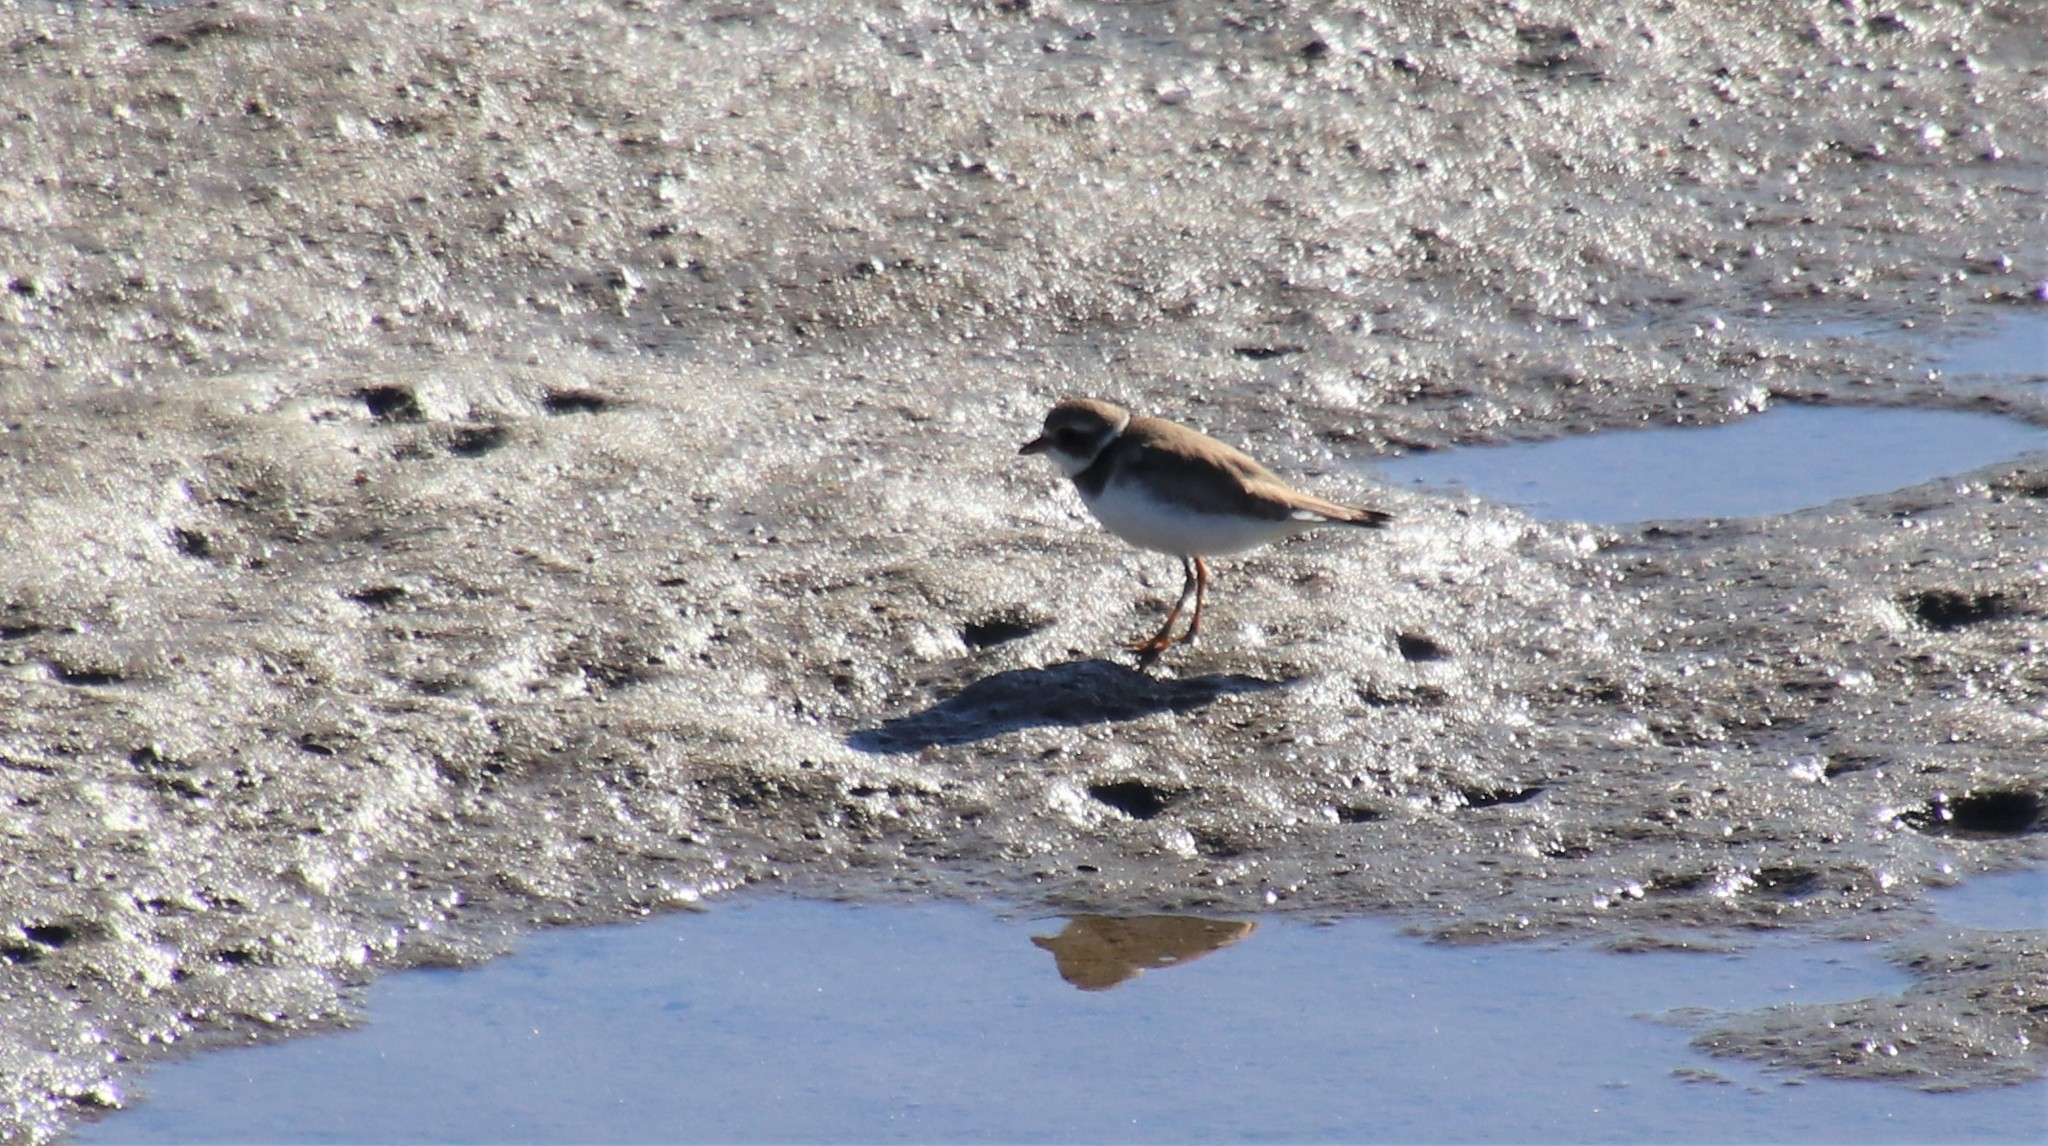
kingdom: Animalia
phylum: Chordata
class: Aves
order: Charadriiformes
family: Charadriidae
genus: Charadrius
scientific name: Charadrius semipalmatus
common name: Semipalmated plover
